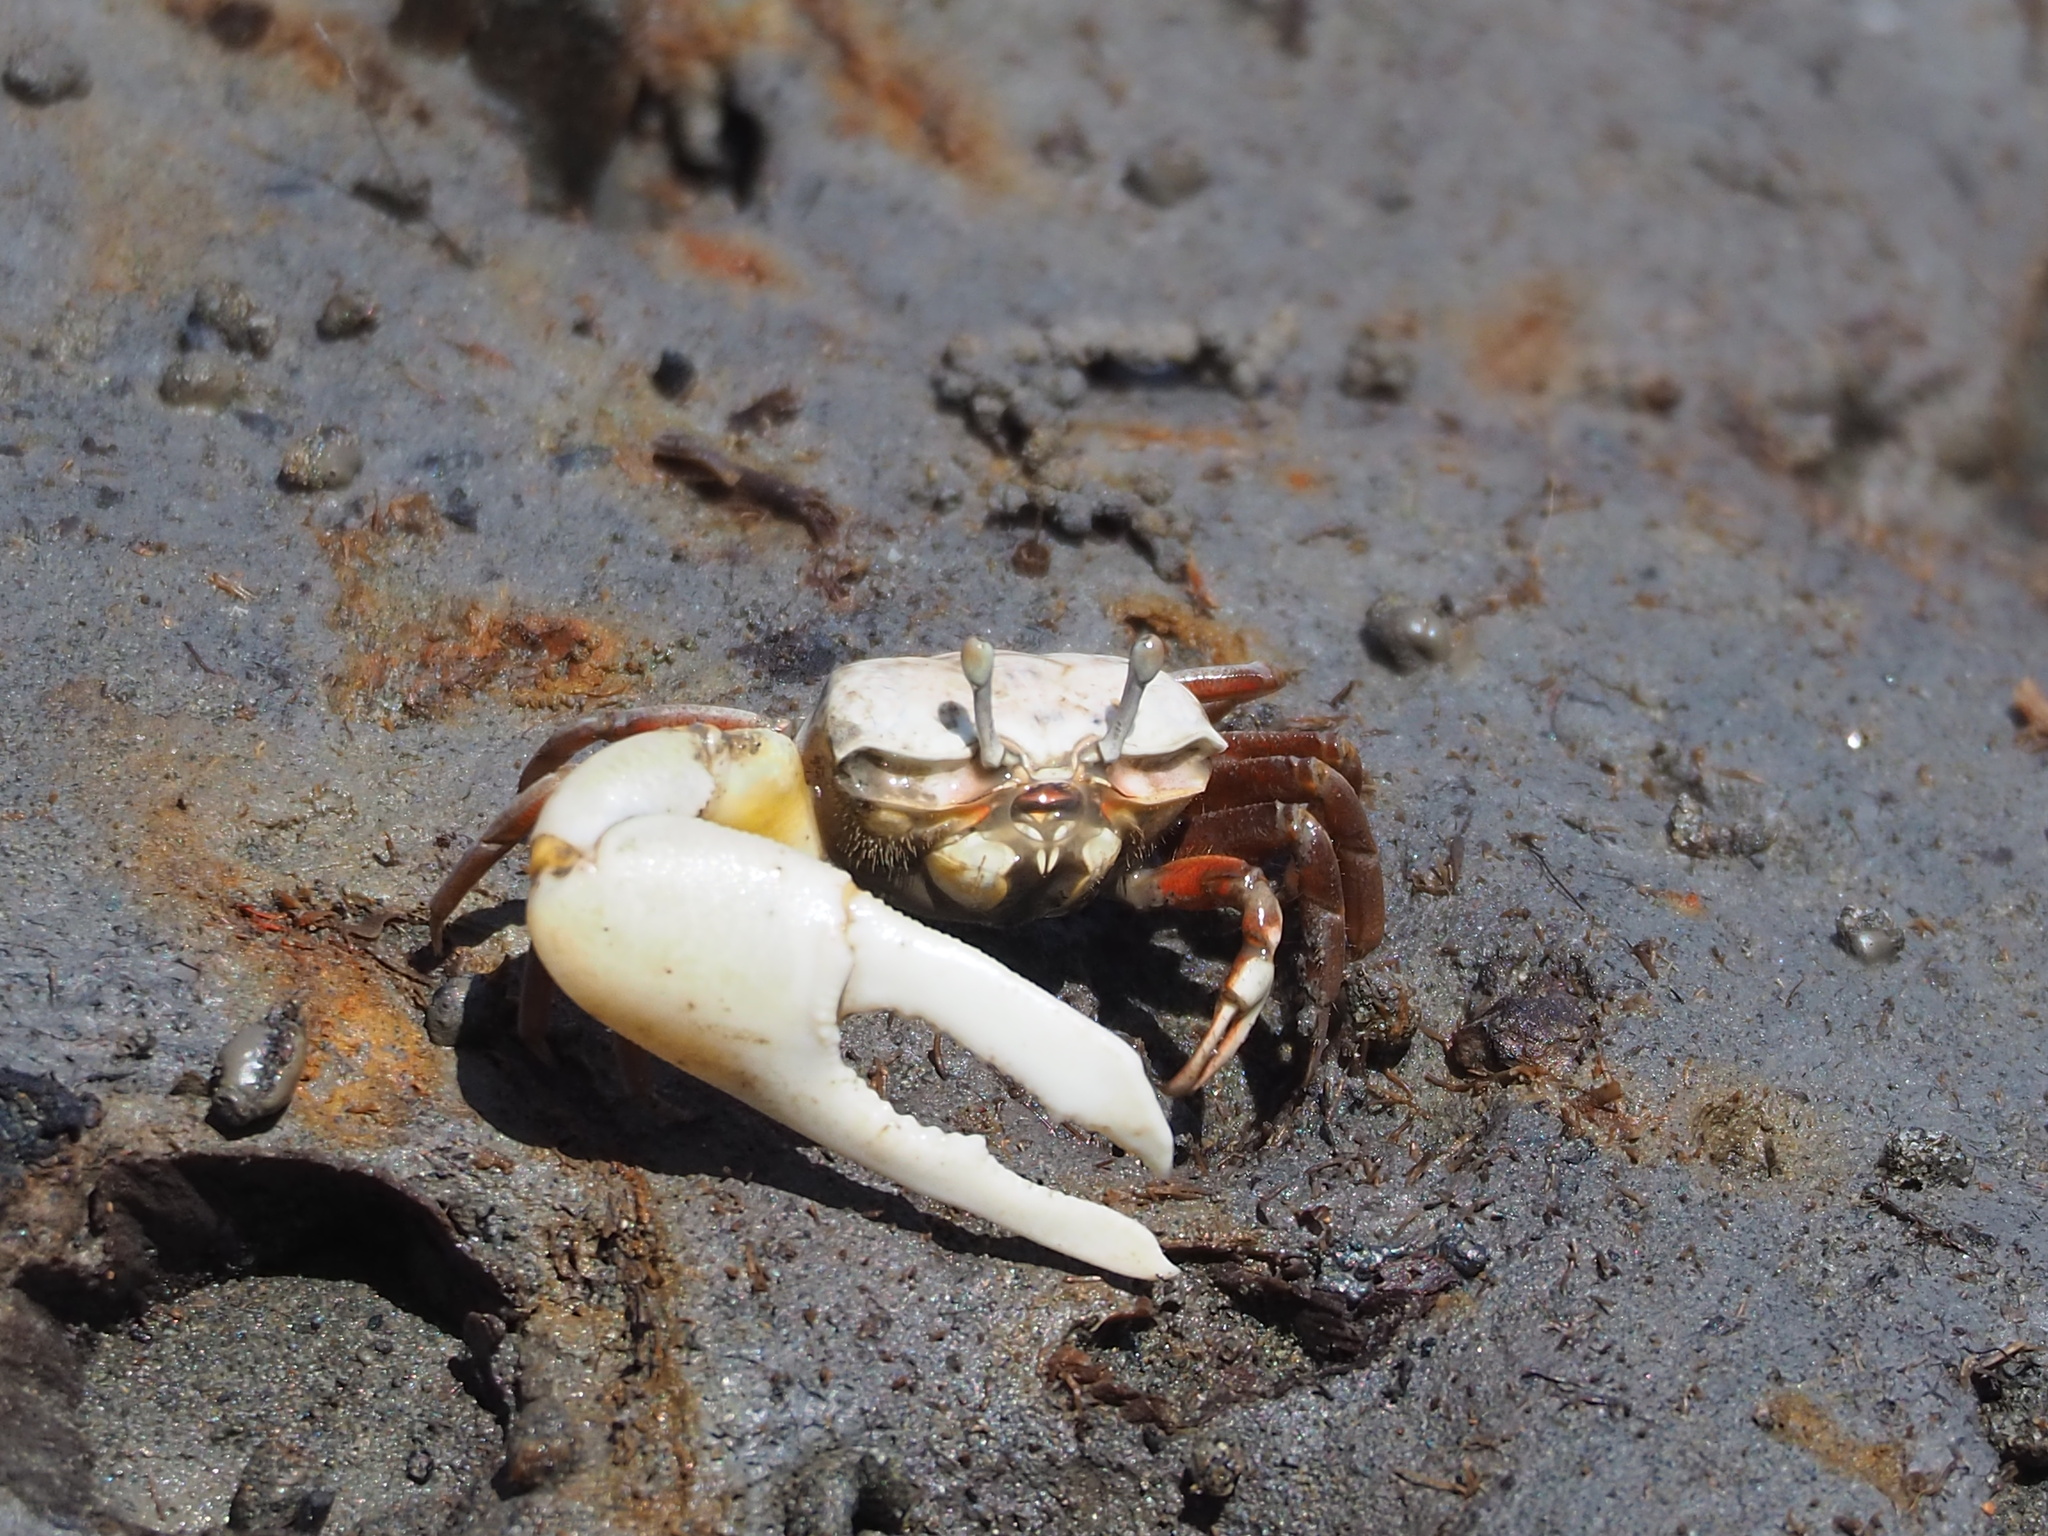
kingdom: Animalia
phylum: Arthropoda
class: Malacostraca
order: Decapoda
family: Ocypodidae
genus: Austruca
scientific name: Austruca lactea
